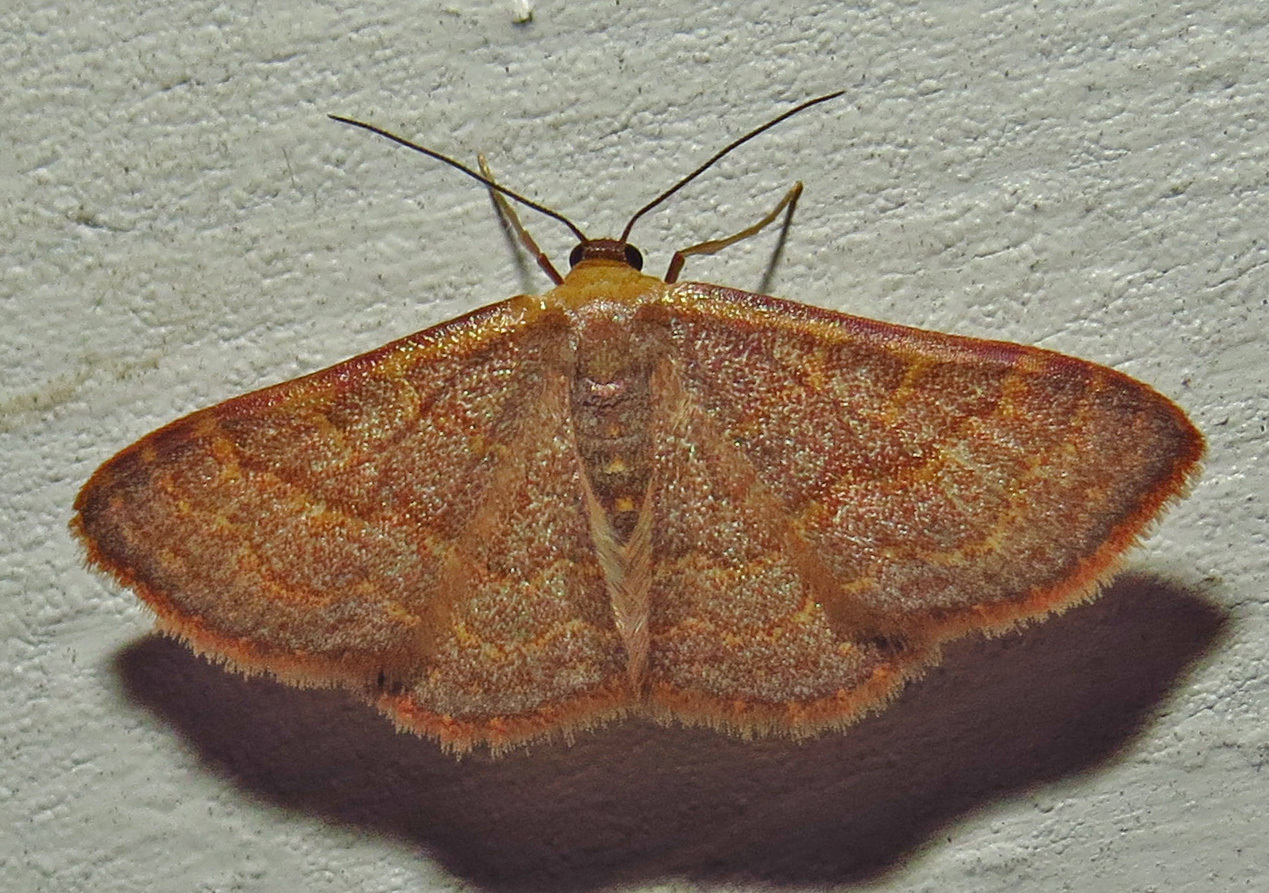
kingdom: Animalia
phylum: Arthropoda
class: Insecta
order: Lepidoptera
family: Geometridae
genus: Leptostales
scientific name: Leptostales pannaria
